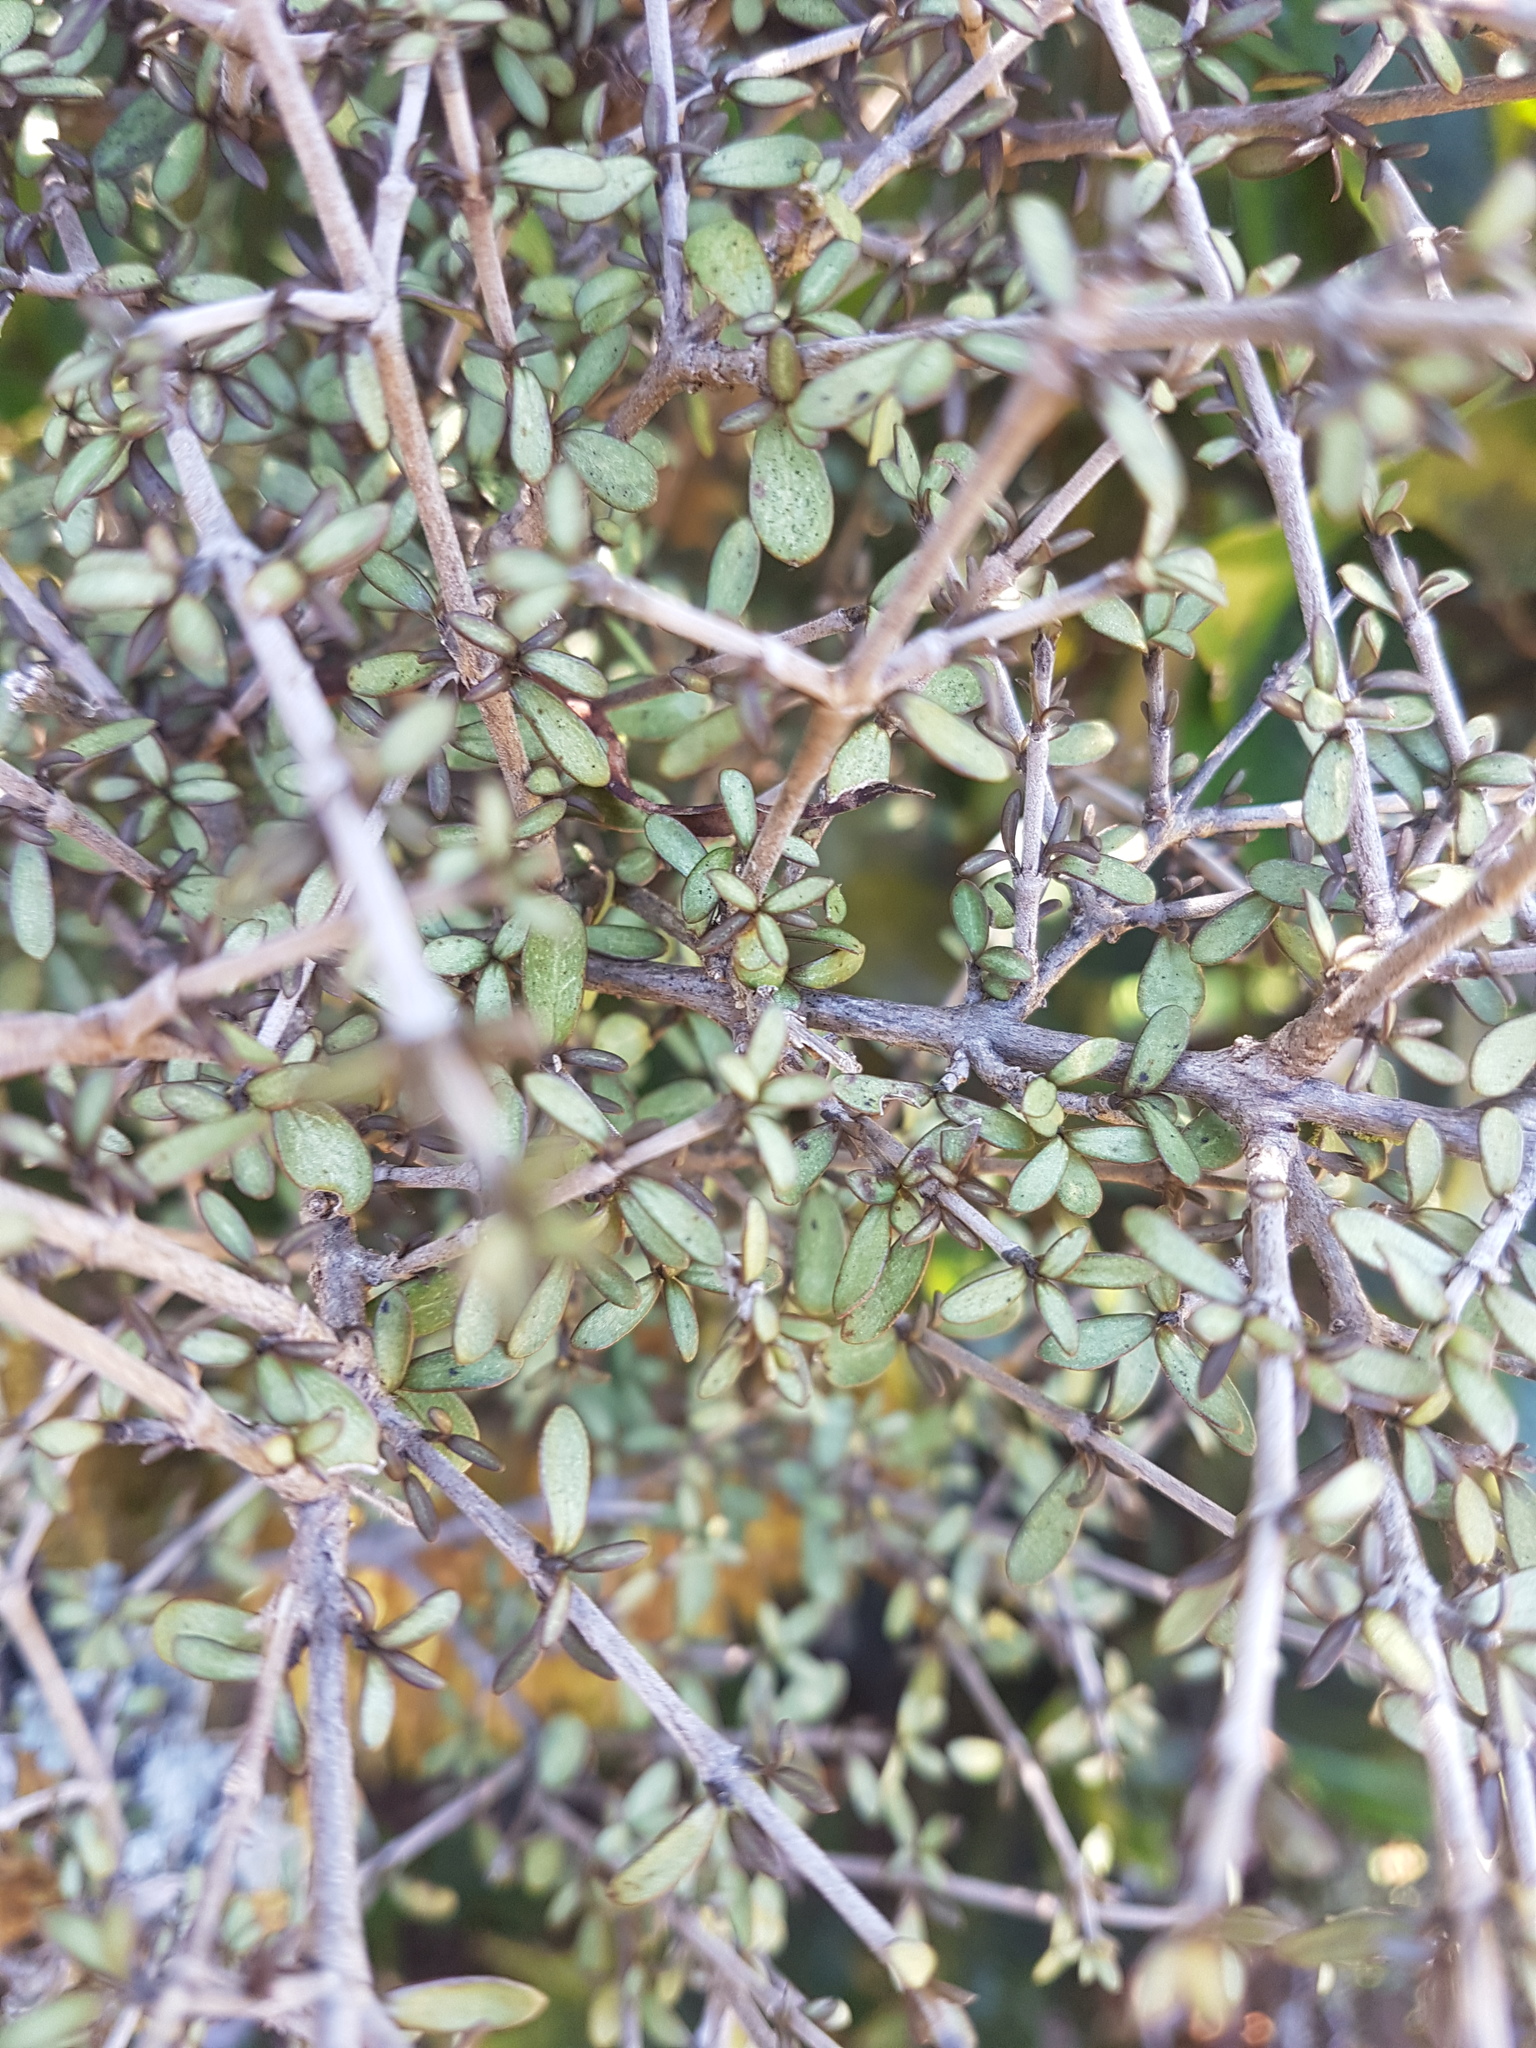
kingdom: Plantae
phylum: Tracheophyta
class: Magnoliopsida
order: Gentianales
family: Rubiaceae
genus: Coprosma
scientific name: Coprosma decurva
